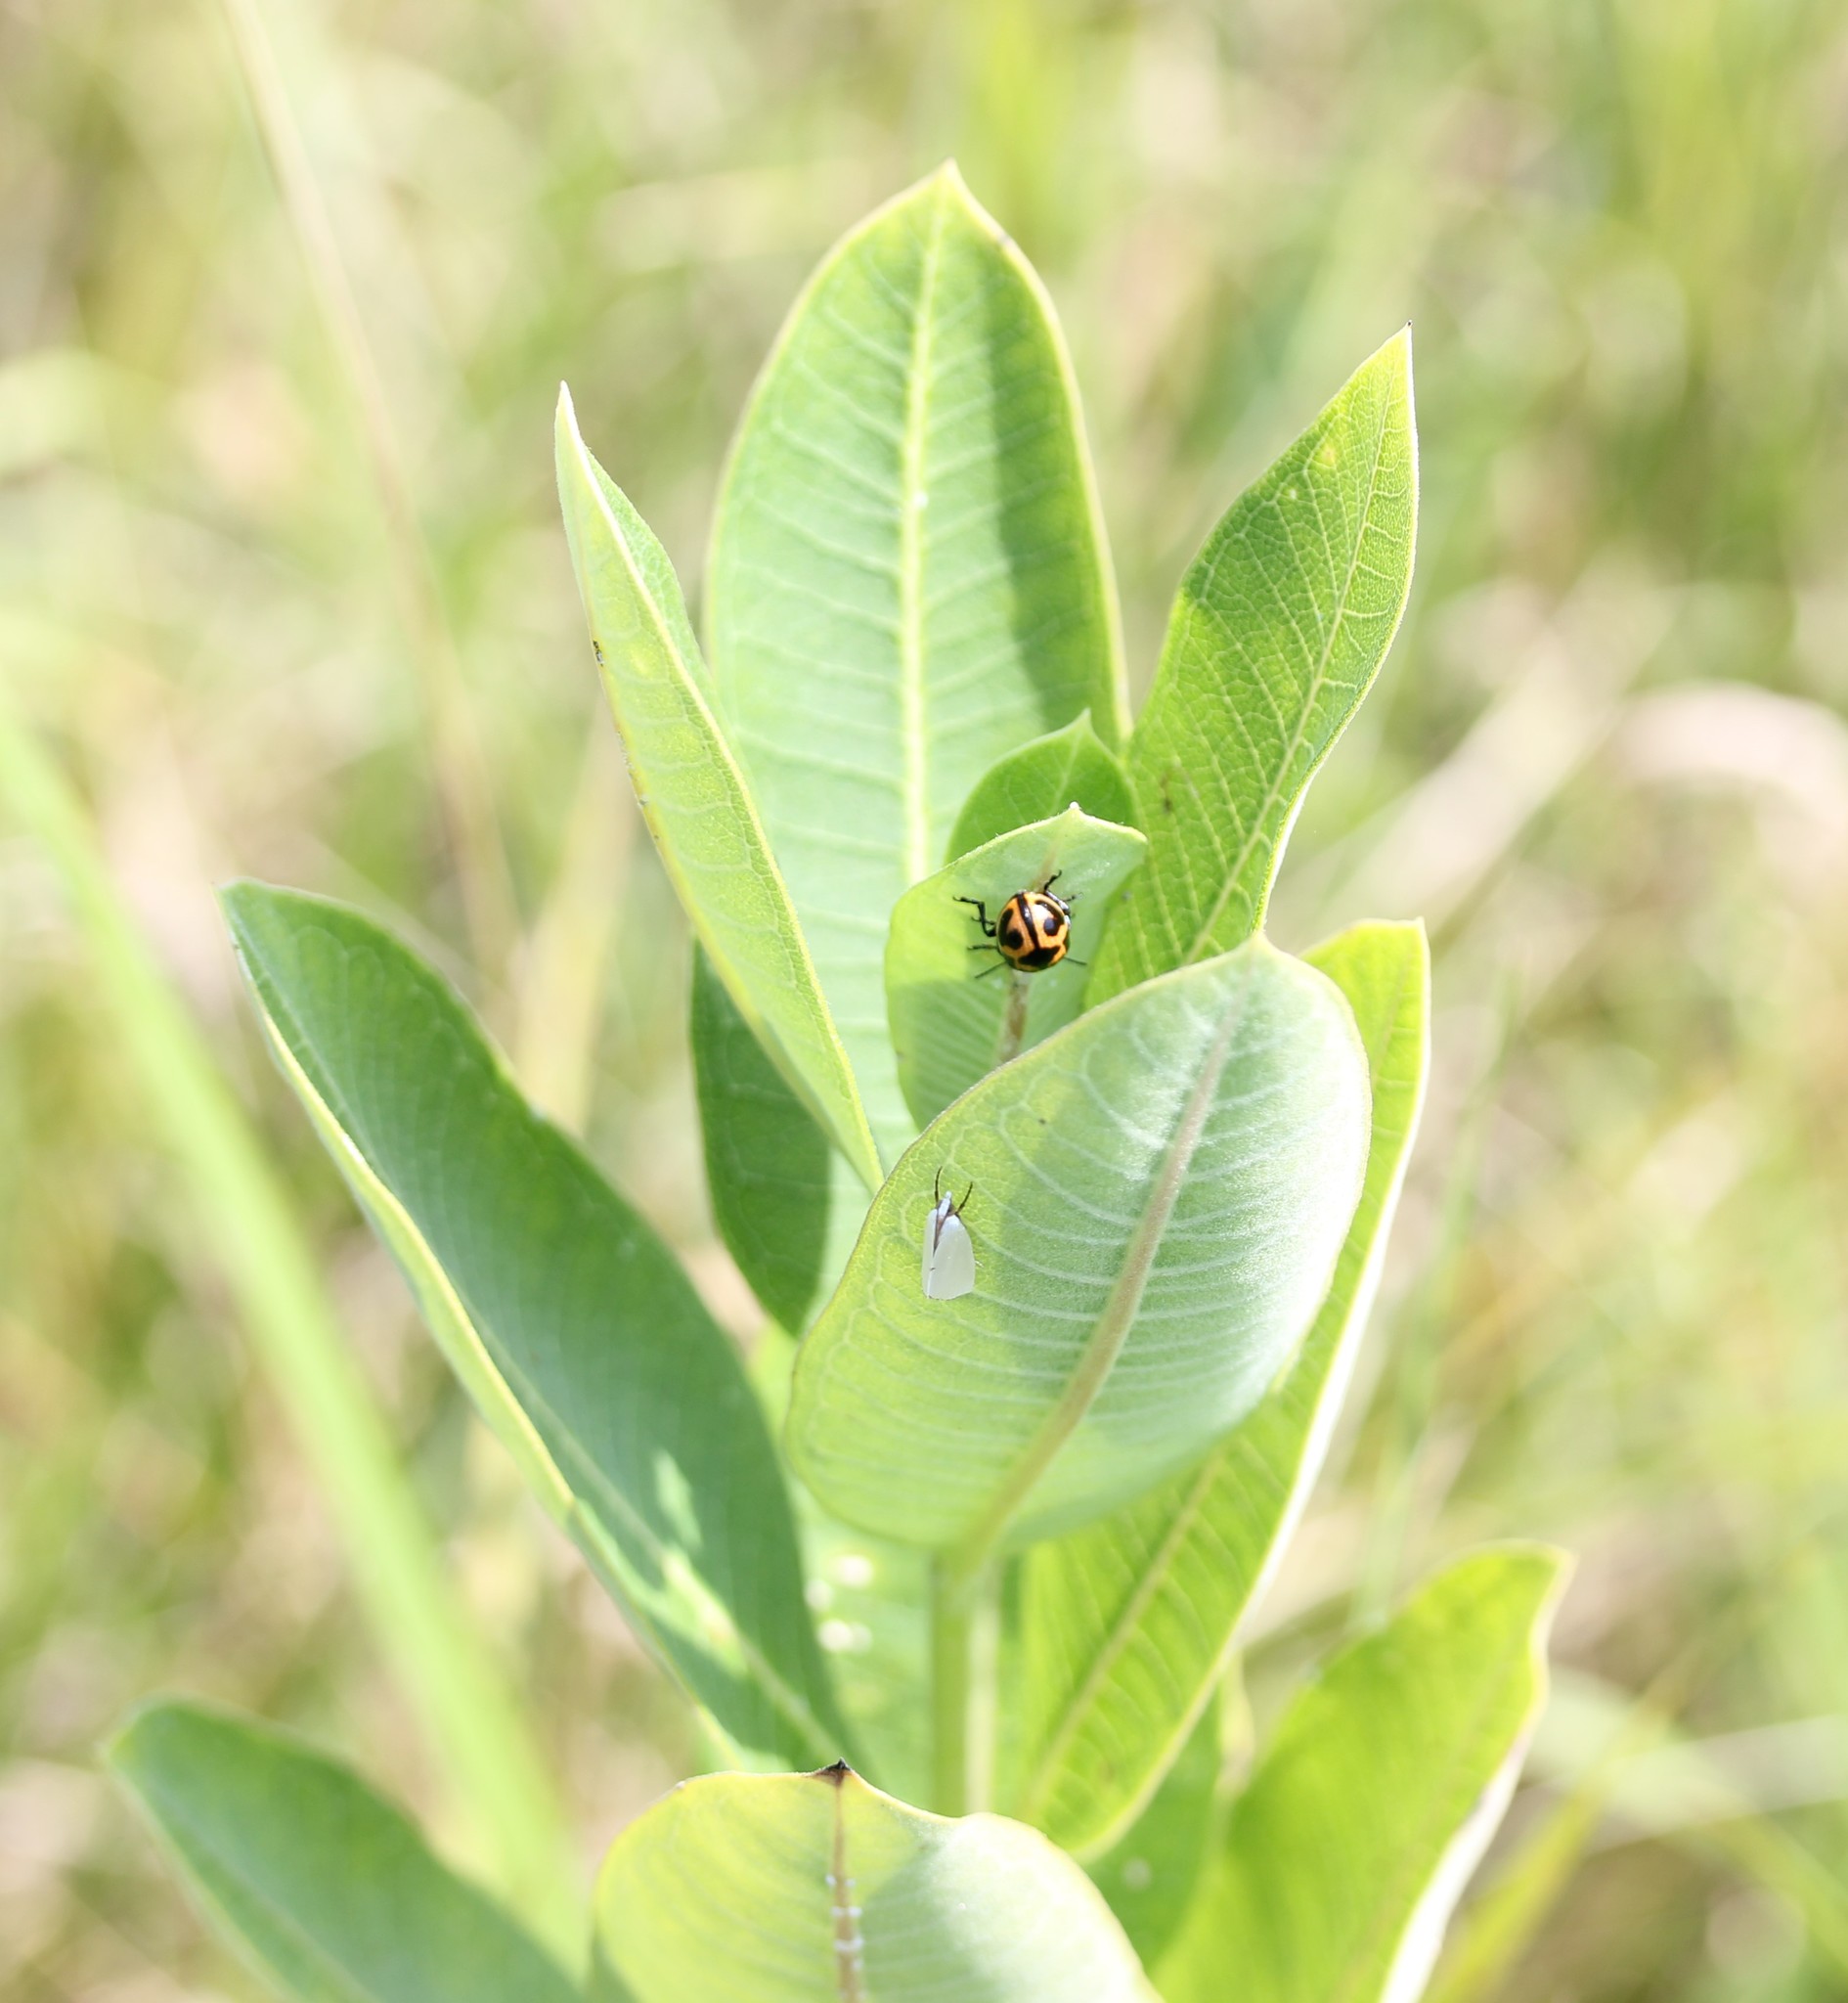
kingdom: Plantae
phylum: Tracheophyta
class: Magnoliopsida
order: Gentianales
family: Apocynaceae
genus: Asclepias
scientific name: Asclepias syriaca
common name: Common milkweed
